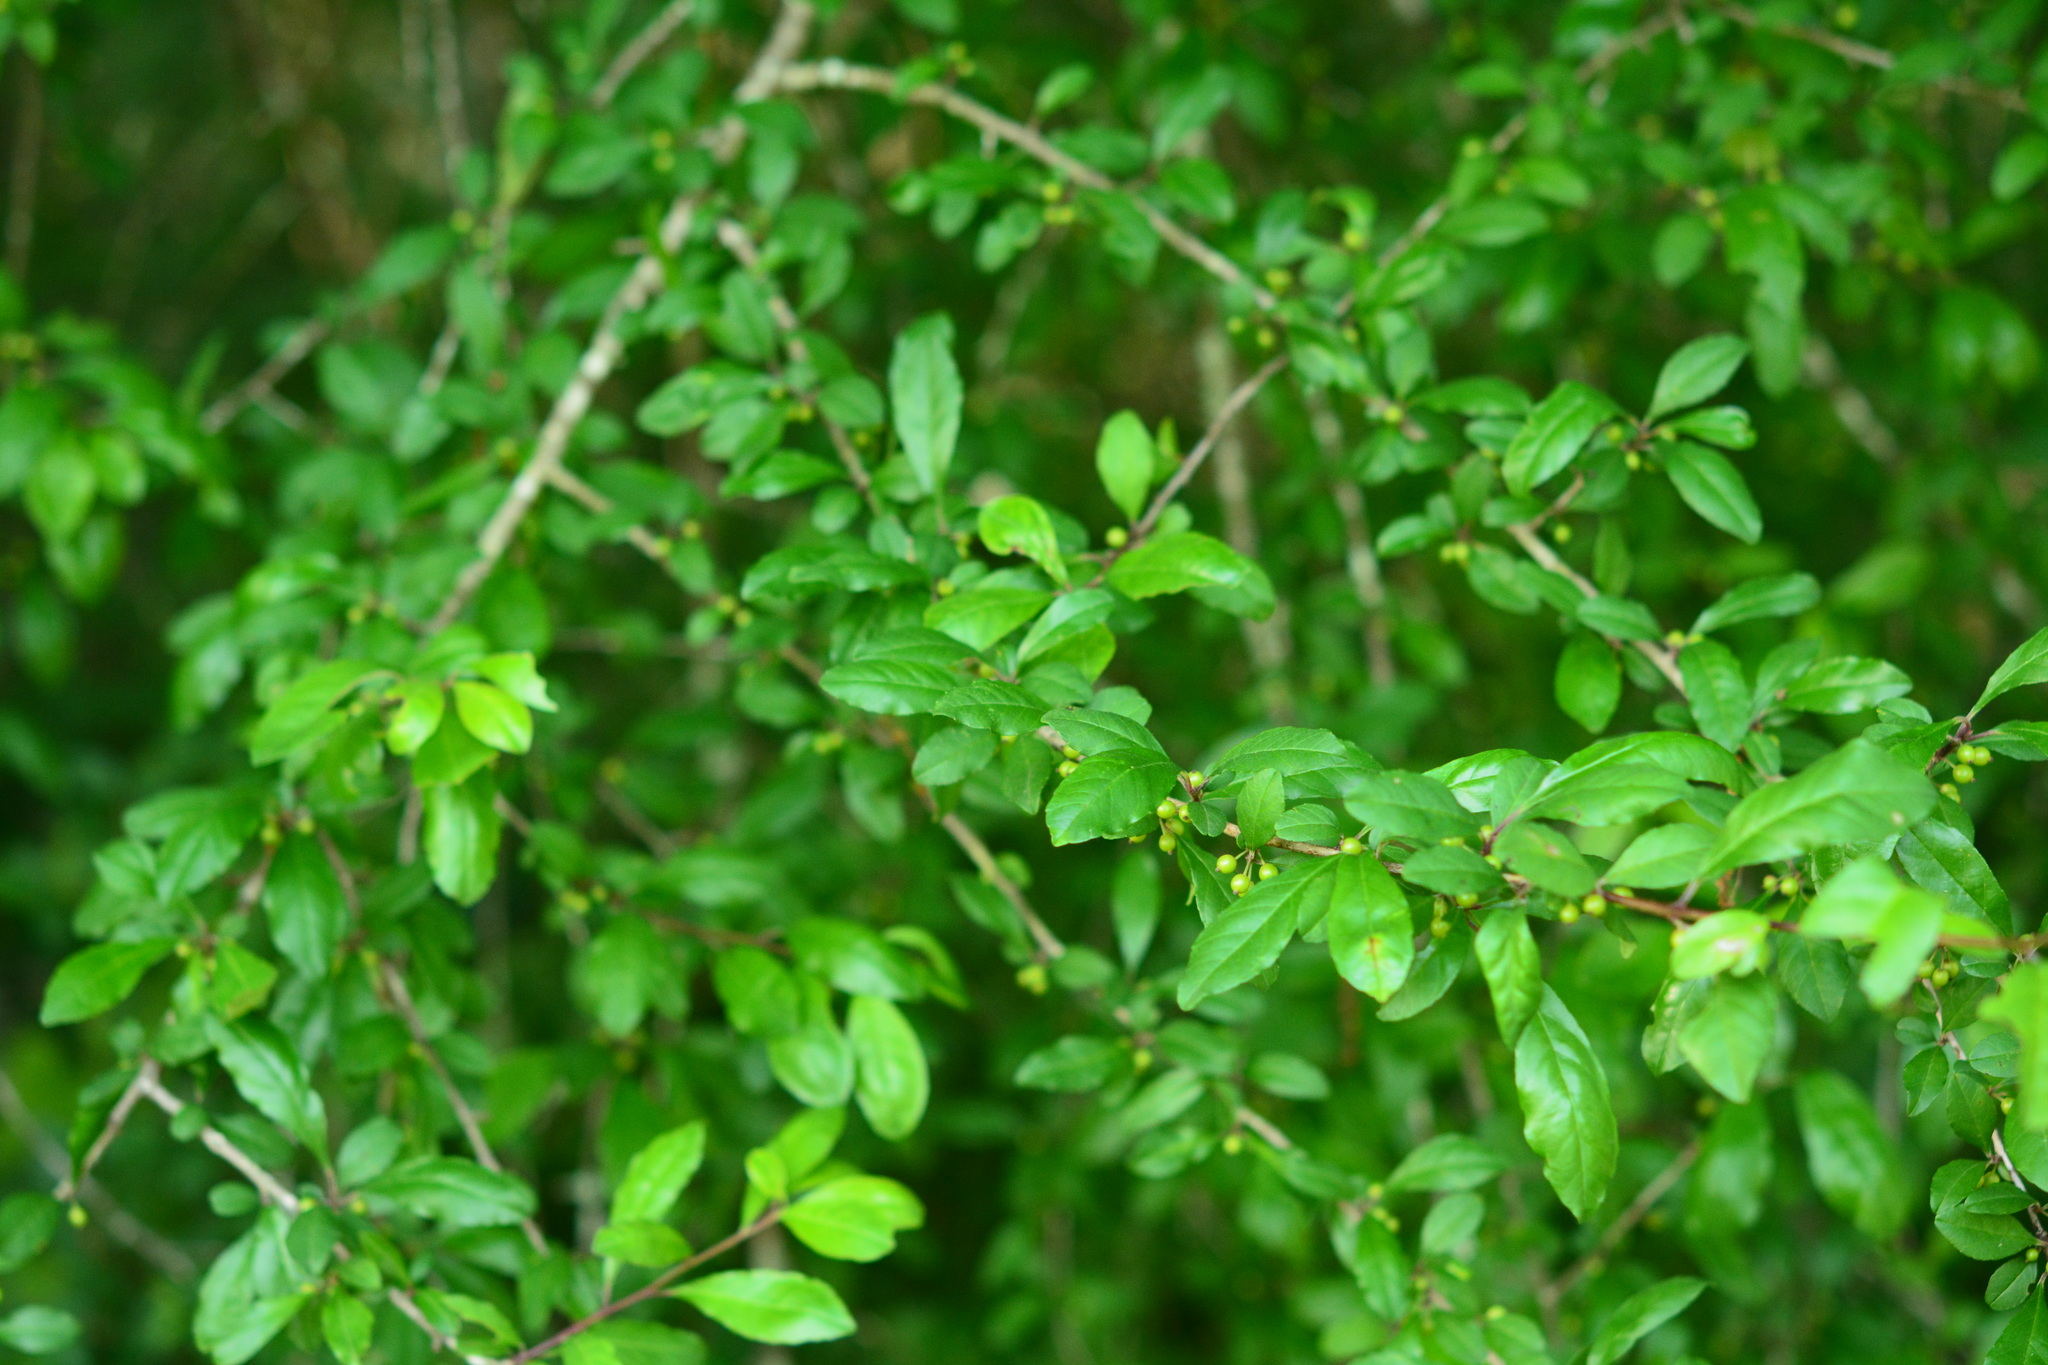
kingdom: Plantae
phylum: Tracheophyta
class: Magnoliopsida
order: Aquifoliales
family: Aquifoliaceae
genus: Ilex
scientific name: Ilex decidua
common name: Possum-haw
